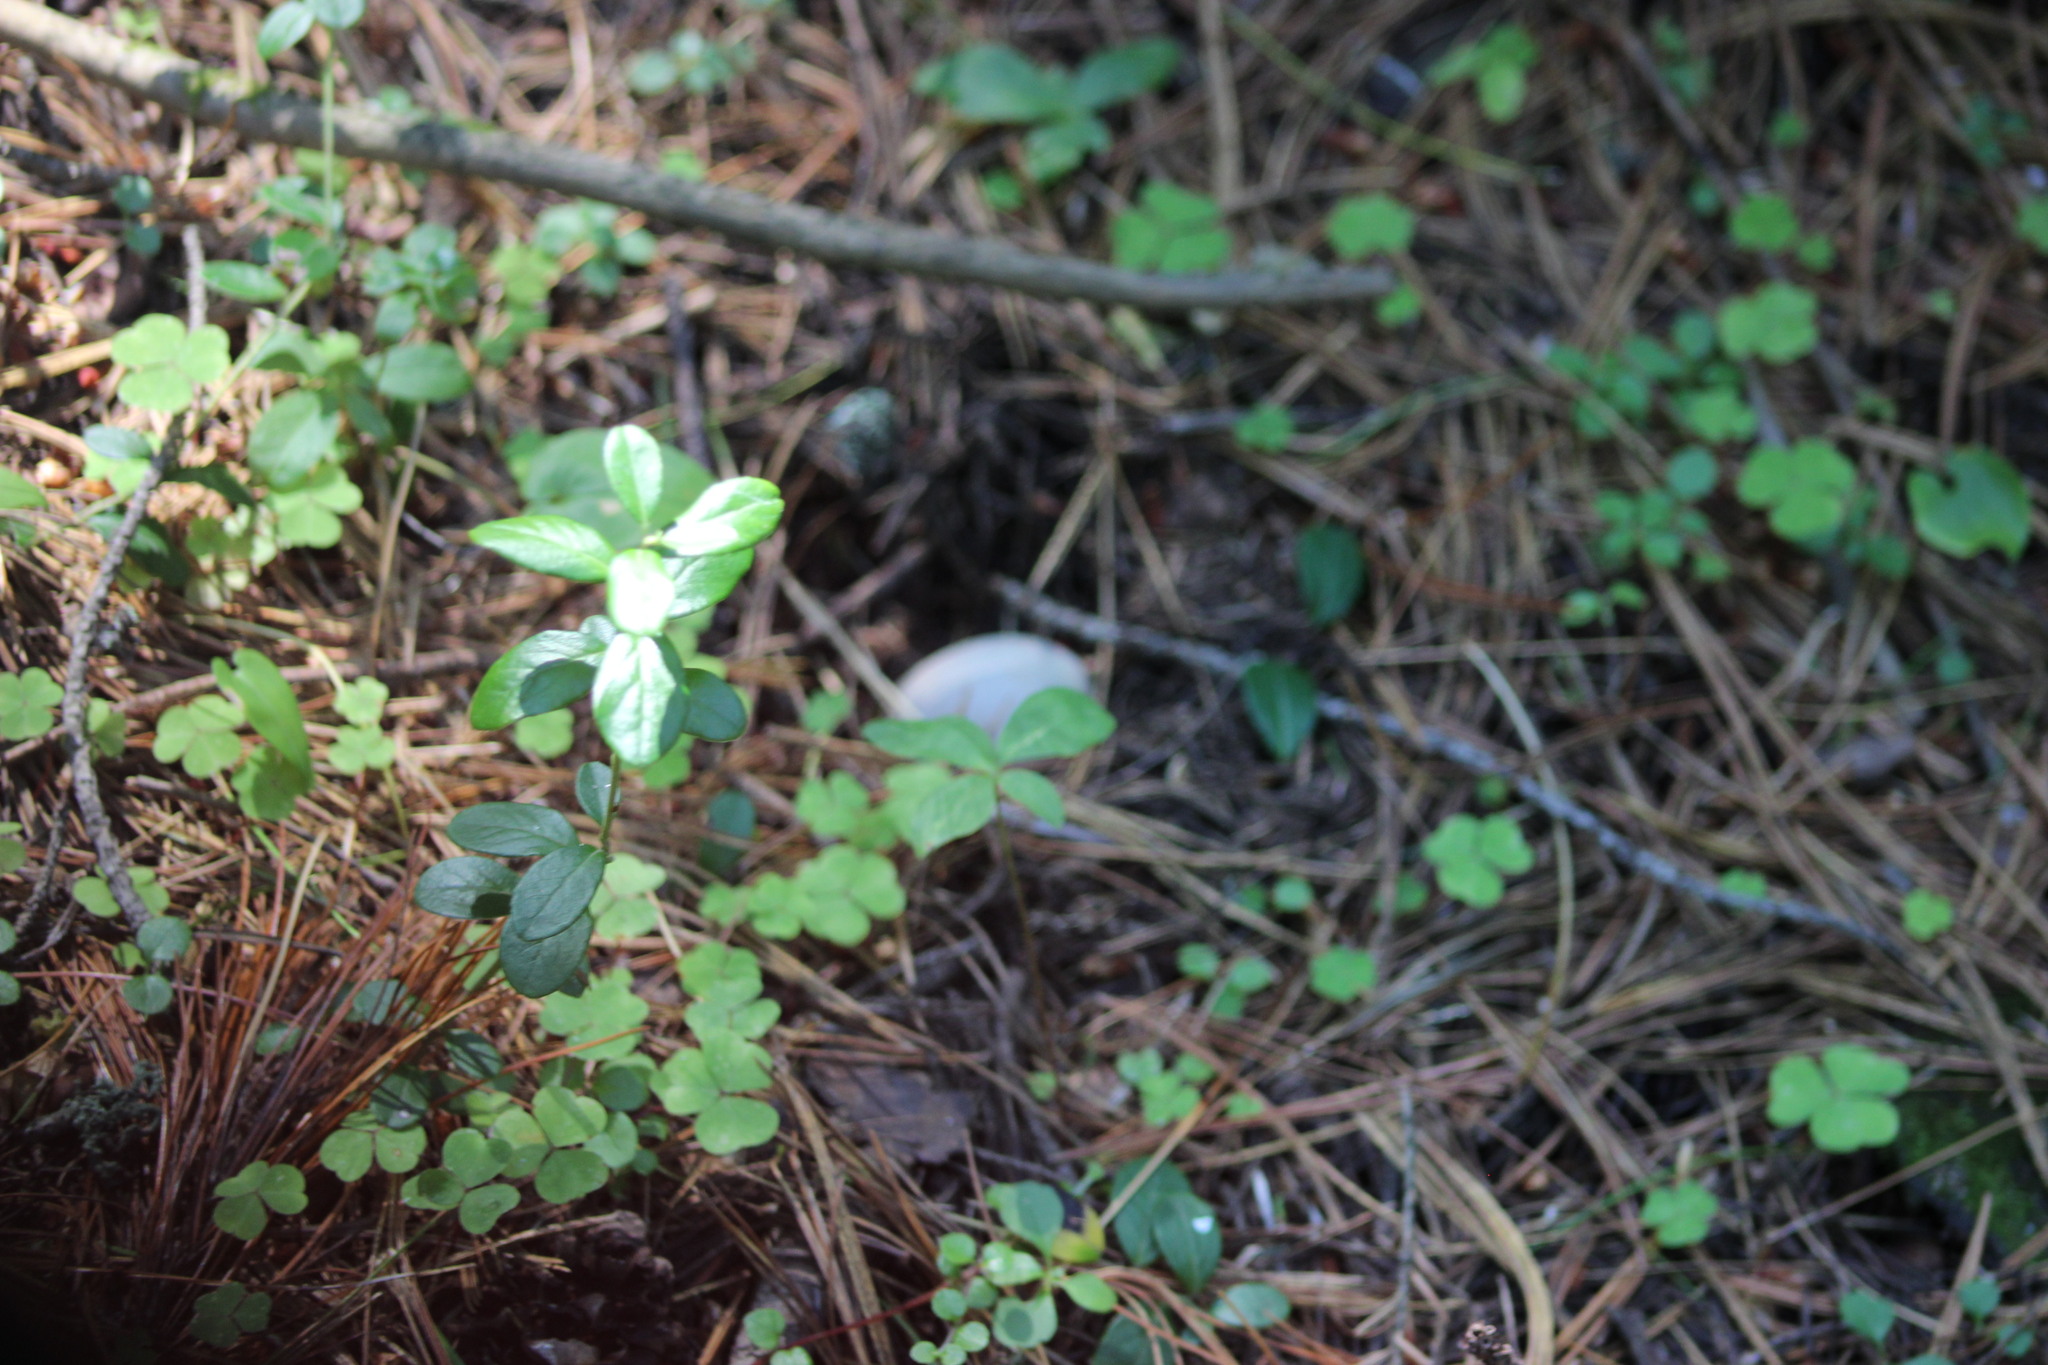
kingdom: Plantae
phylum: Tracheophyta
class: Magnoliopsida
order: Ericales
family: Ericaceae
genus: Vaccinium
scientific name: Vaccinium vitis-idaea
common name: Cowberry
